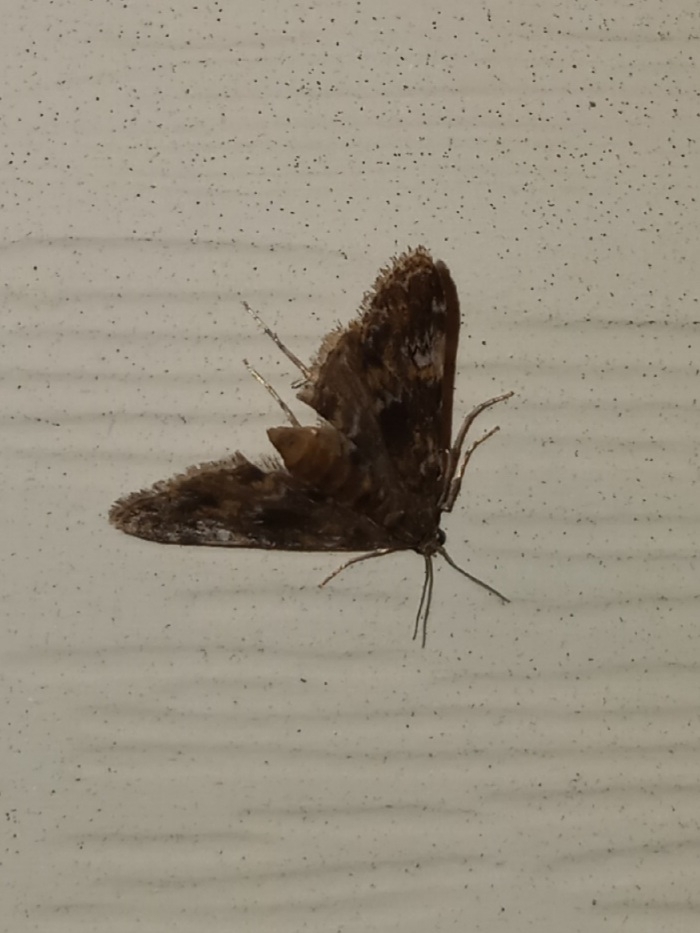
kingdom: Animalia
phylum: Arthropoda
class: Insecta
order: Lepidoptera
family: Crambidae
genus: Elophila
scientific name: Elophila obliteralis
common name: Waterlily leafcutter moth
